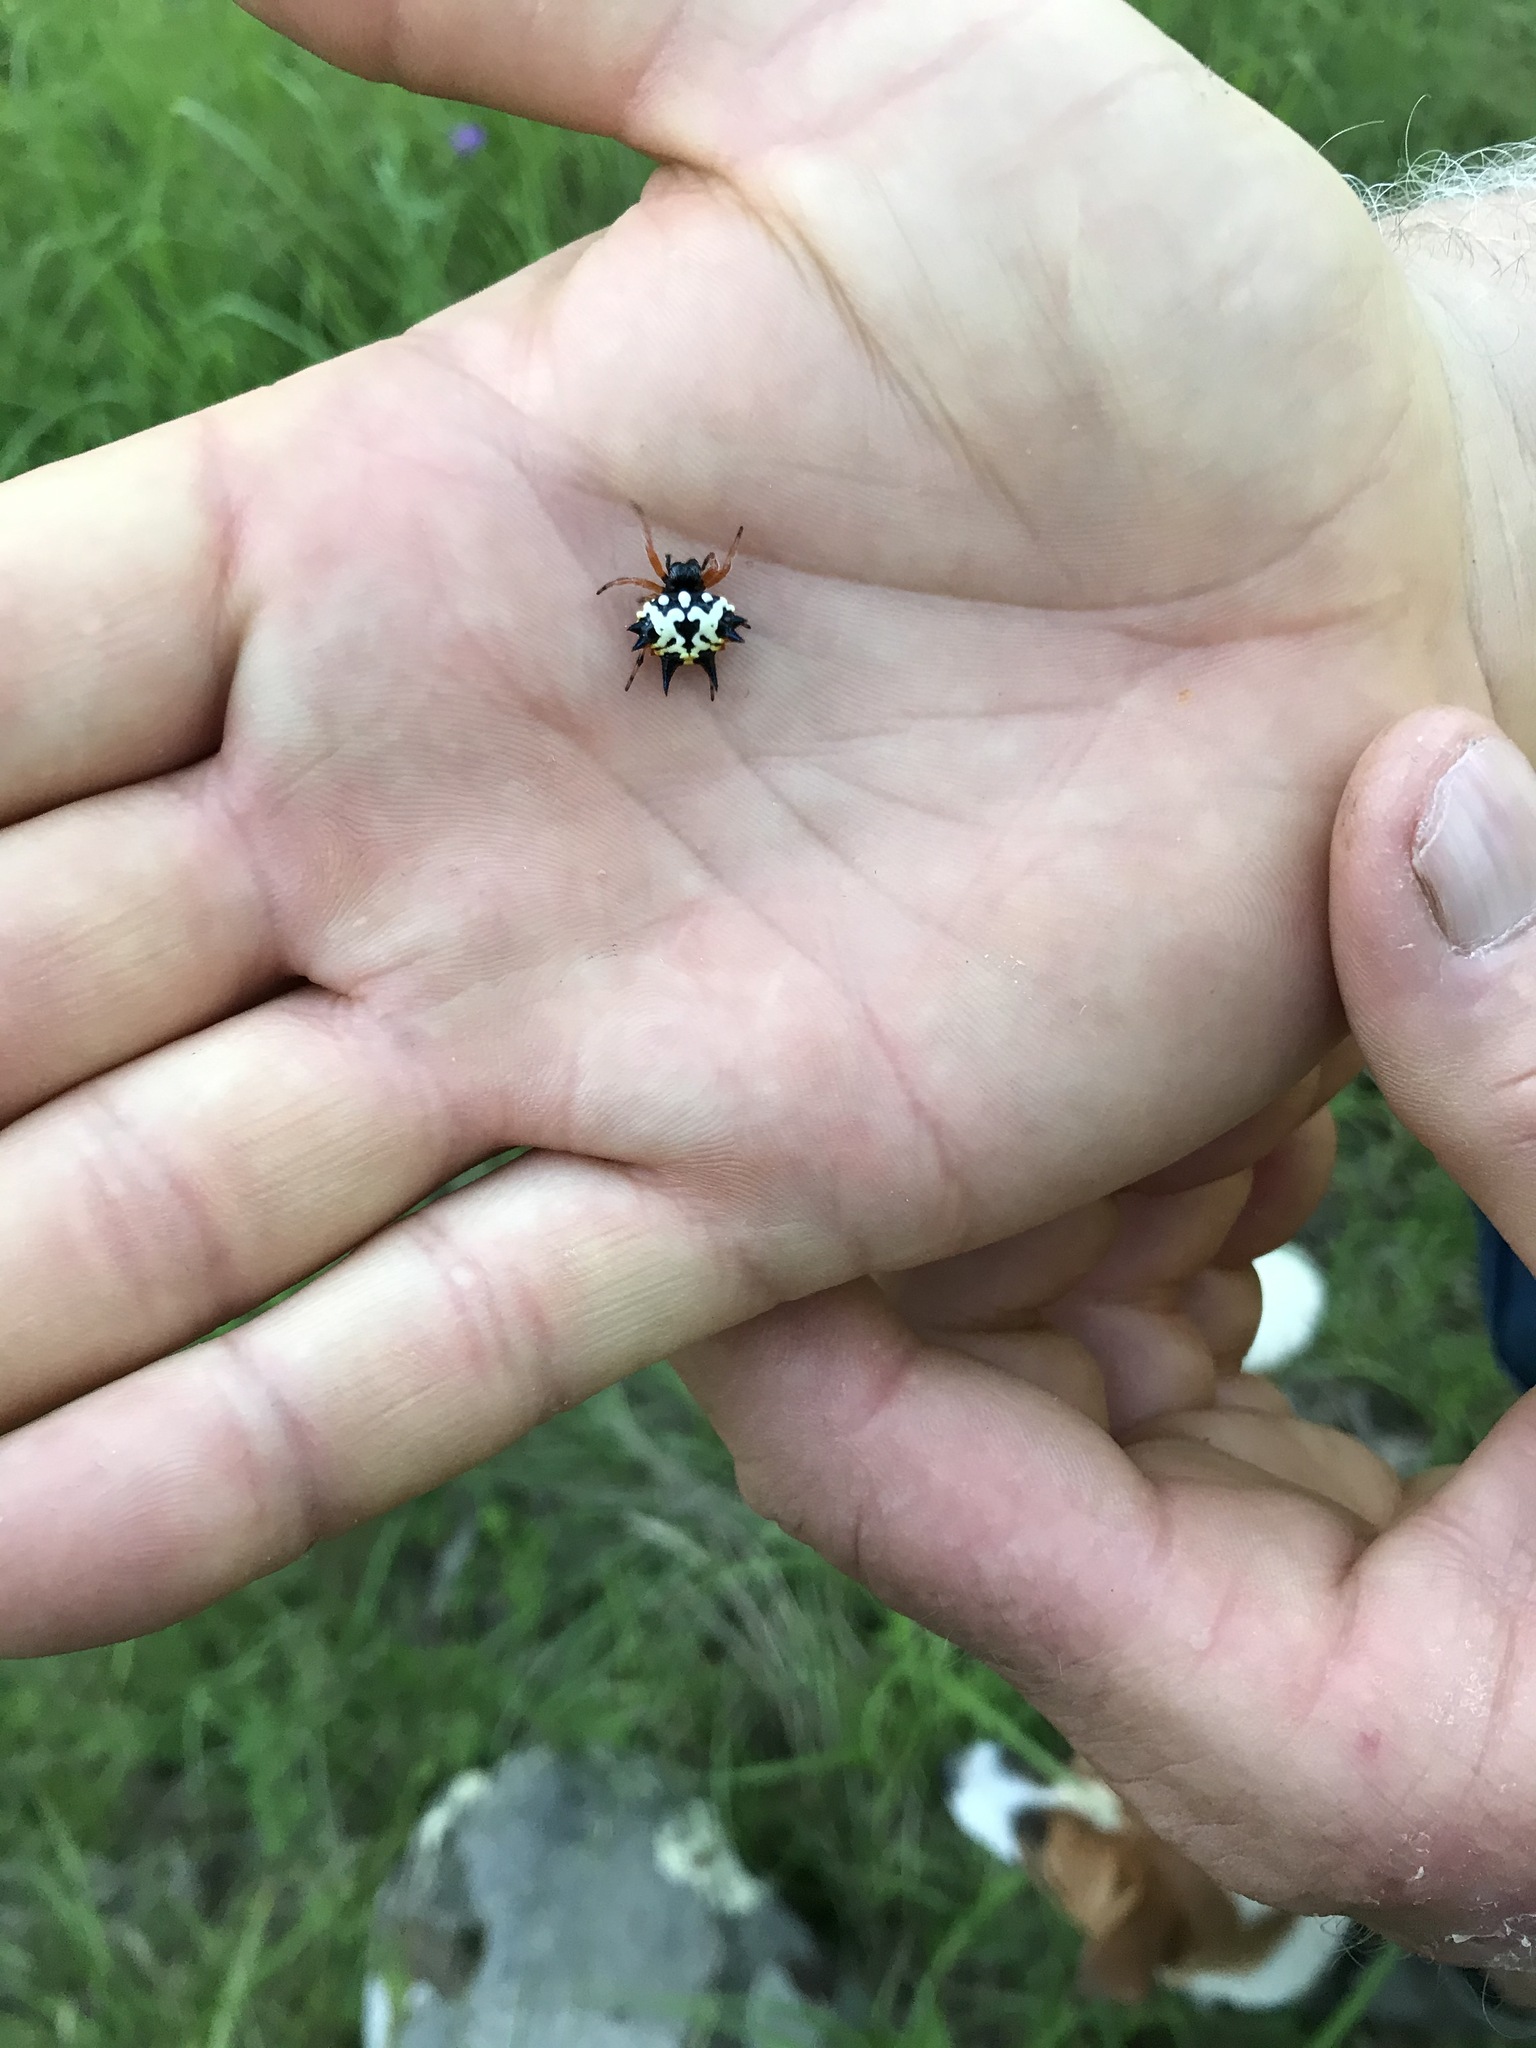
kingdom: Animalia
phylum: Arthropoda
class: Arachnida
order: Araneae
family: Araneidae
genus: Austracantha
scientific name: Austracantha minax
